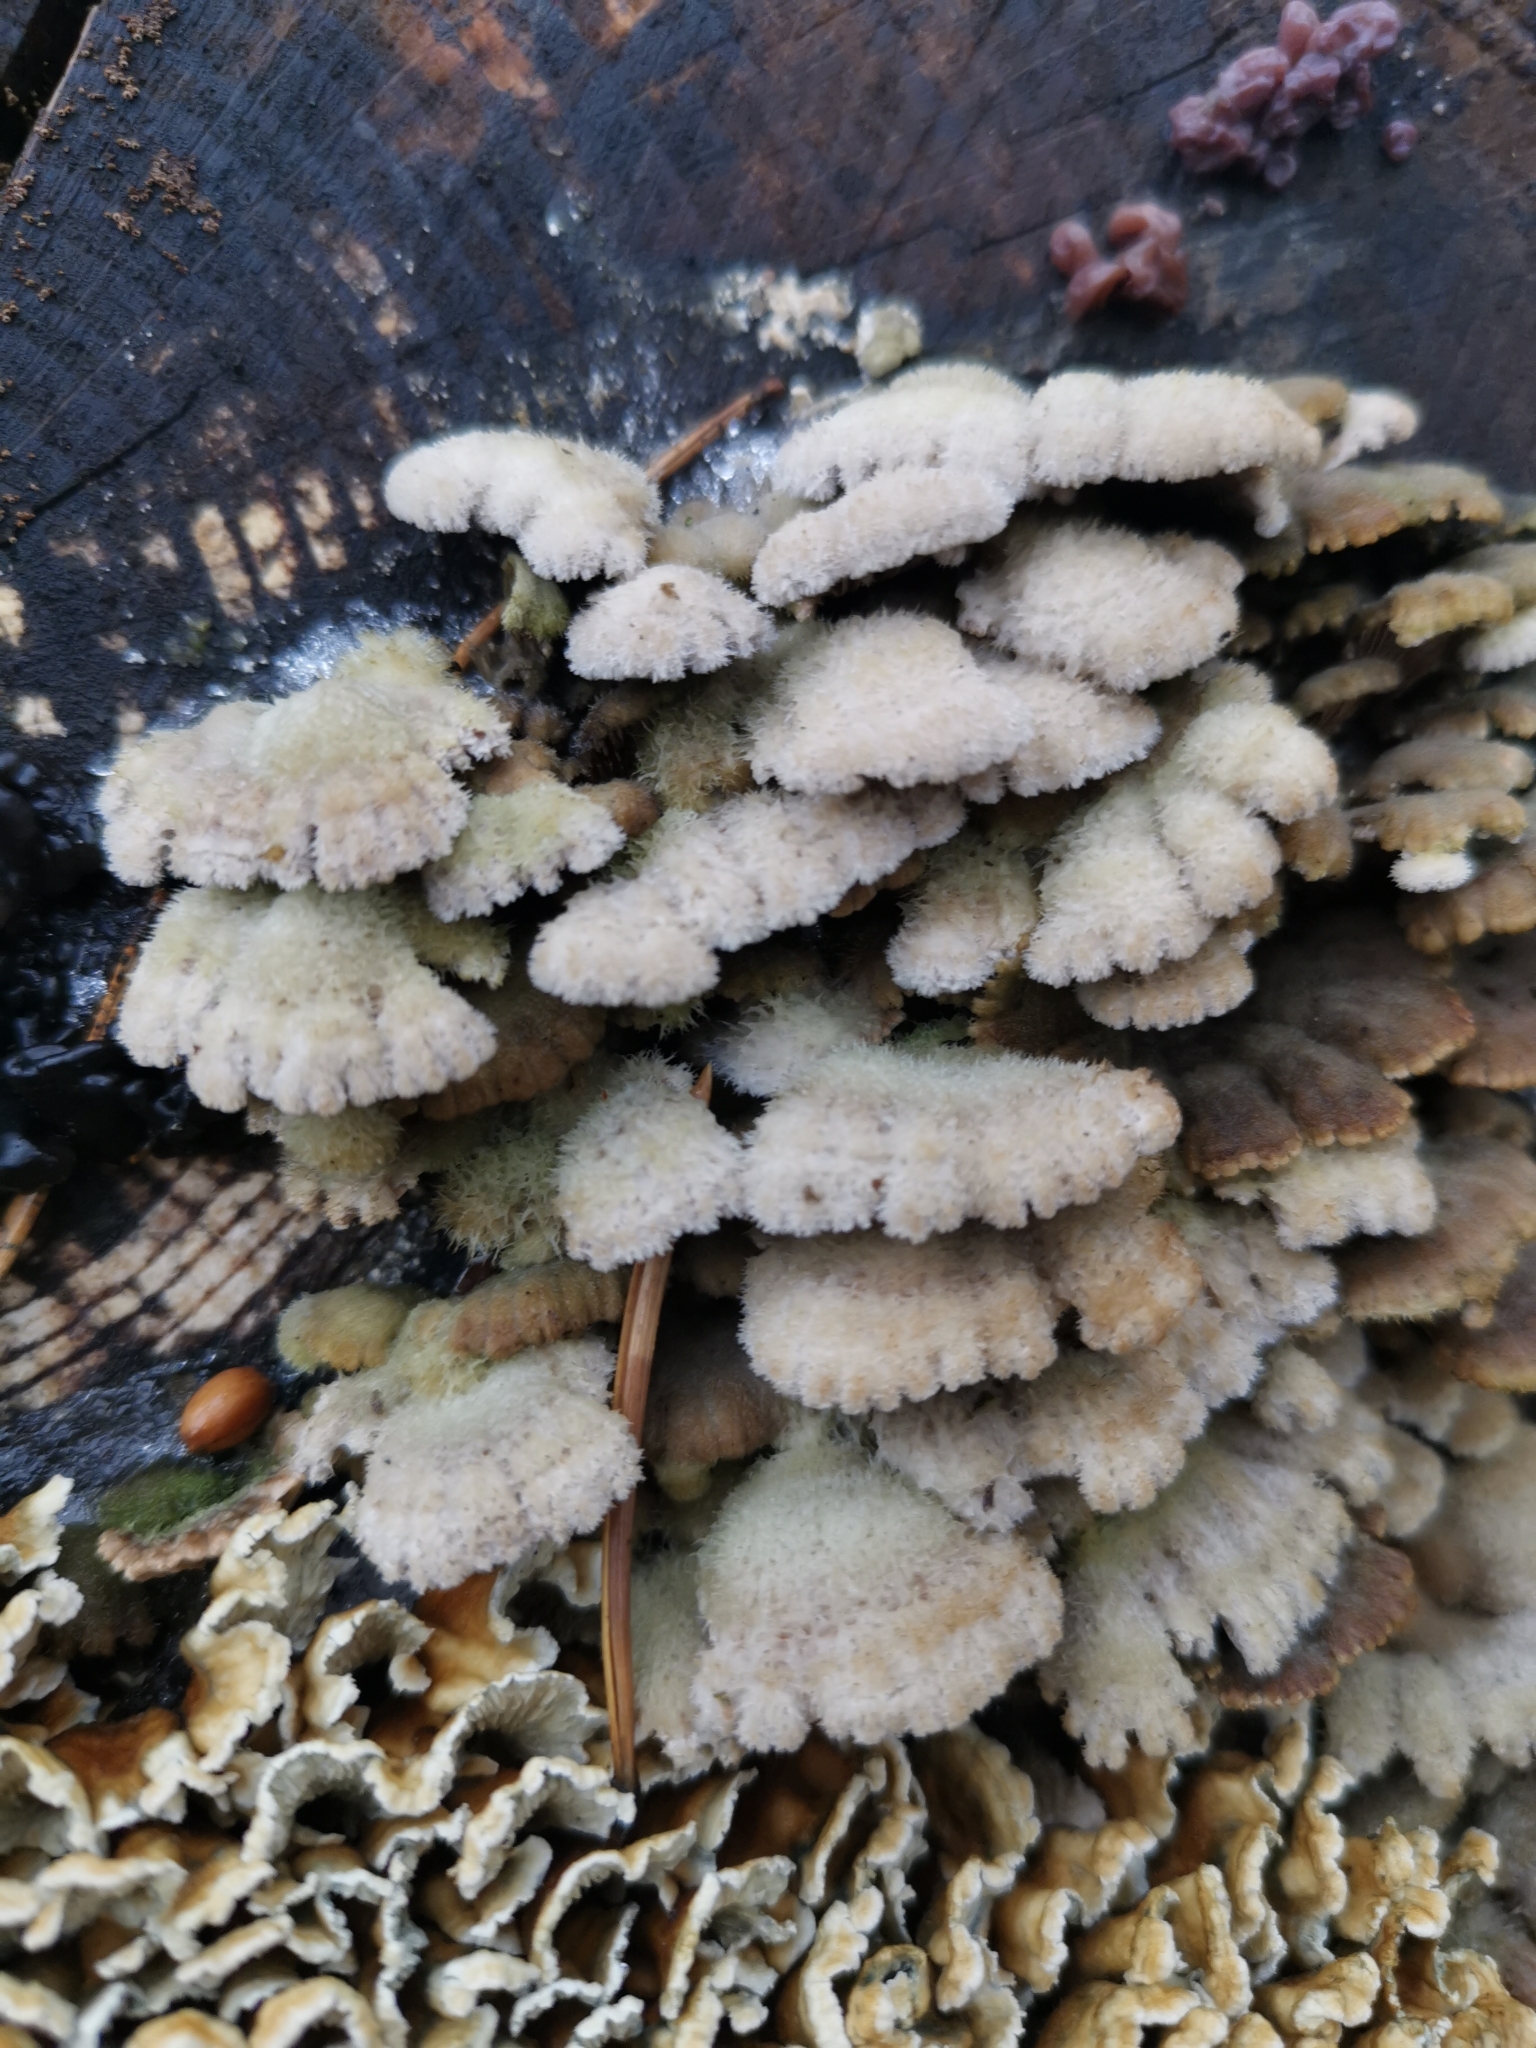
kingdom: Fungi
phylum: Basidiomycota
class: Agaricomycetes
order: Agaricales
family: Schizophyllaceae
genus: Schizophyllum
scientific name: Schizophyllum commune
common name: Common porecrust
